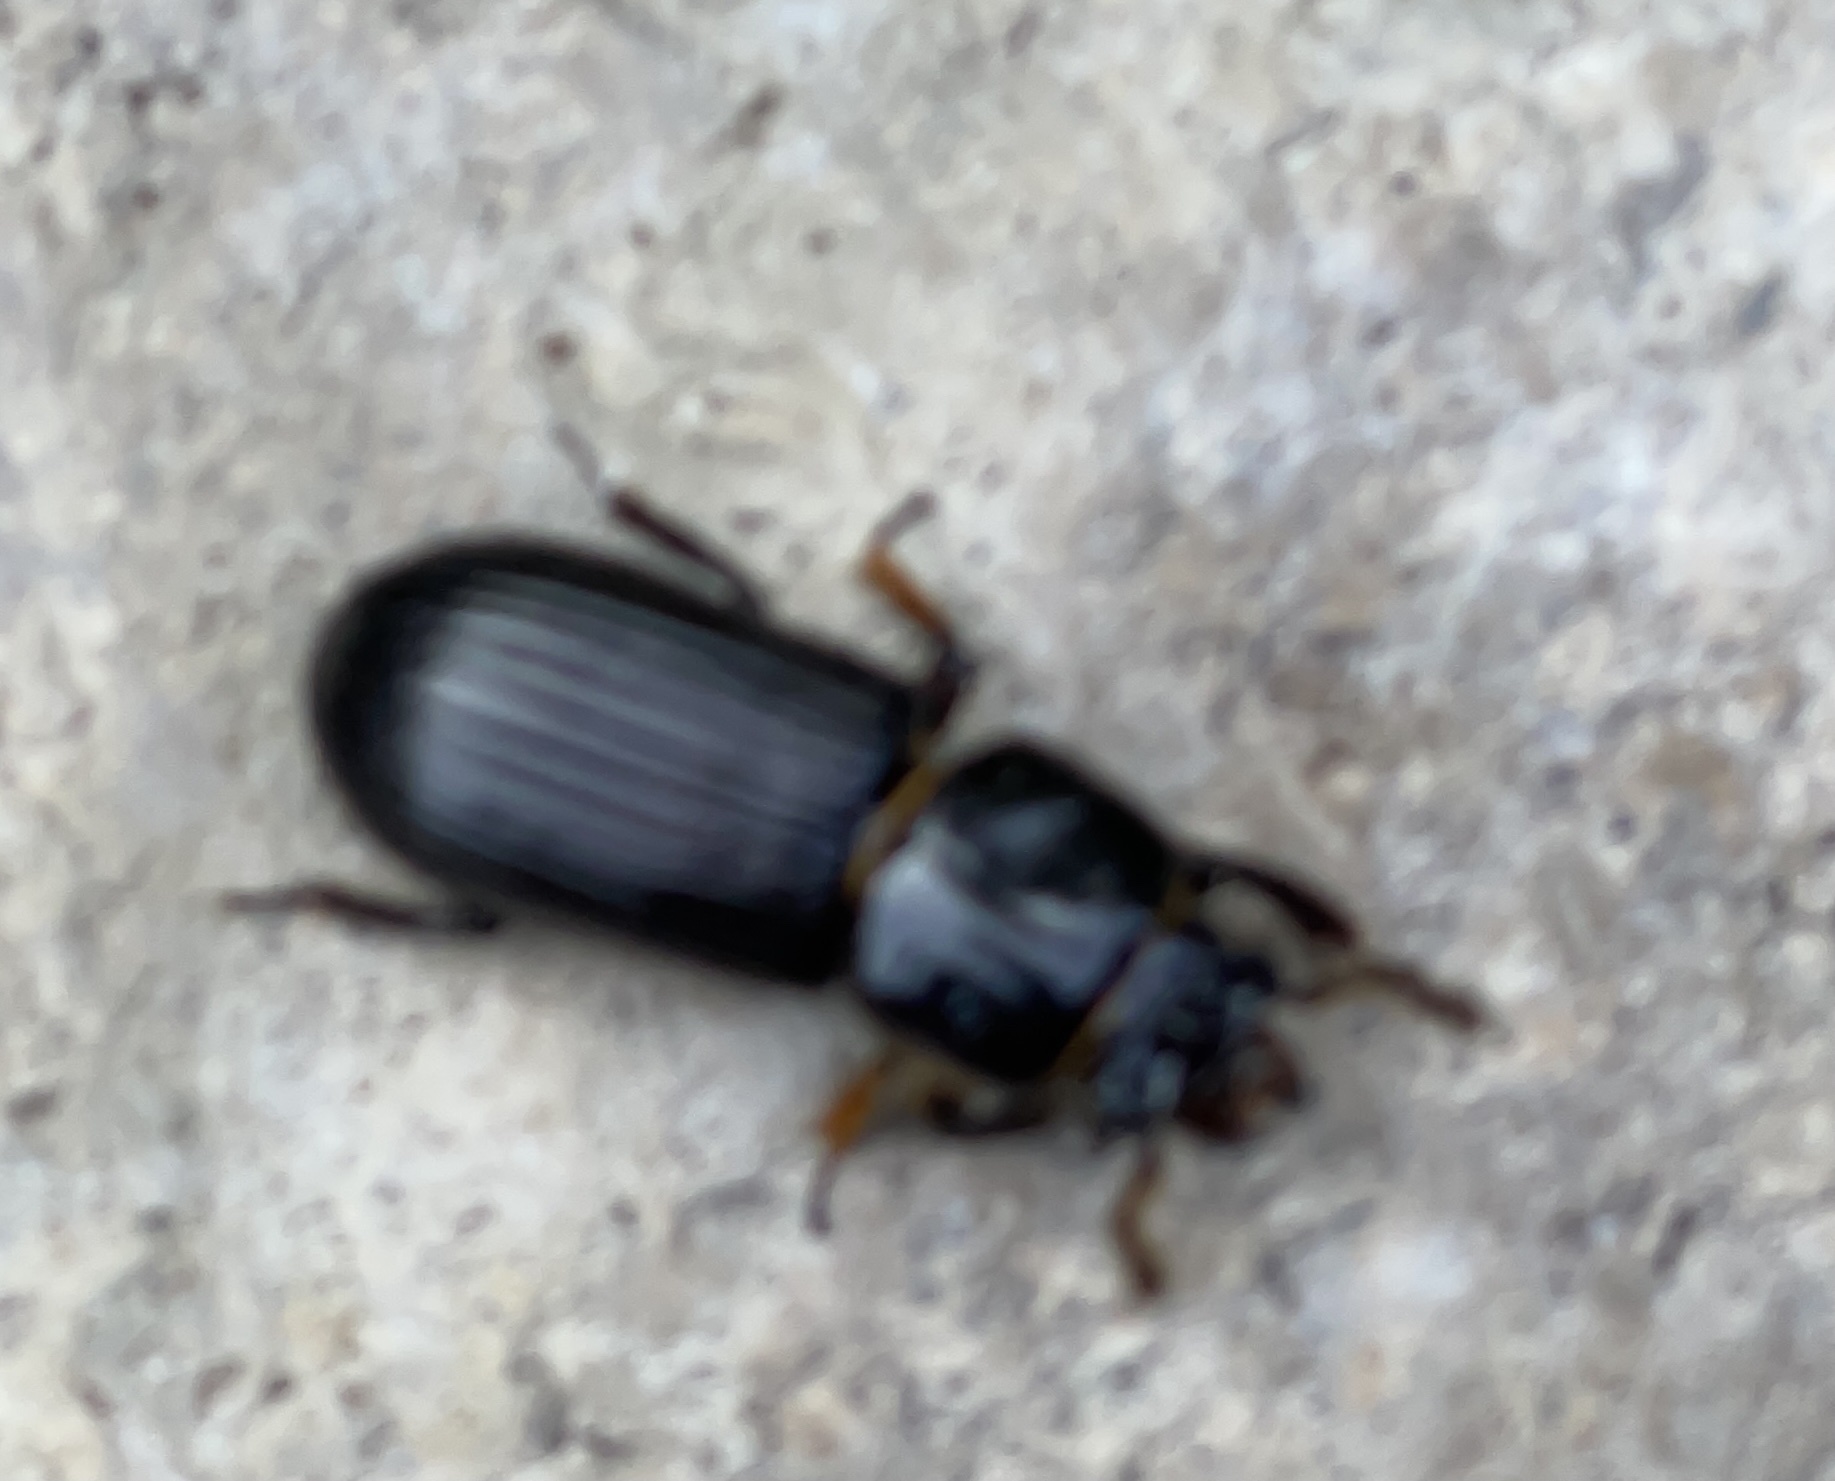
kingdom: Animalia
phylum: Arthropoda
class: Insecta
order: Coleoptera
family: Passalidae
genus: Odontotaenius
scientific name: Odontotaenius disjunctus
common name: Patent leather beetle
